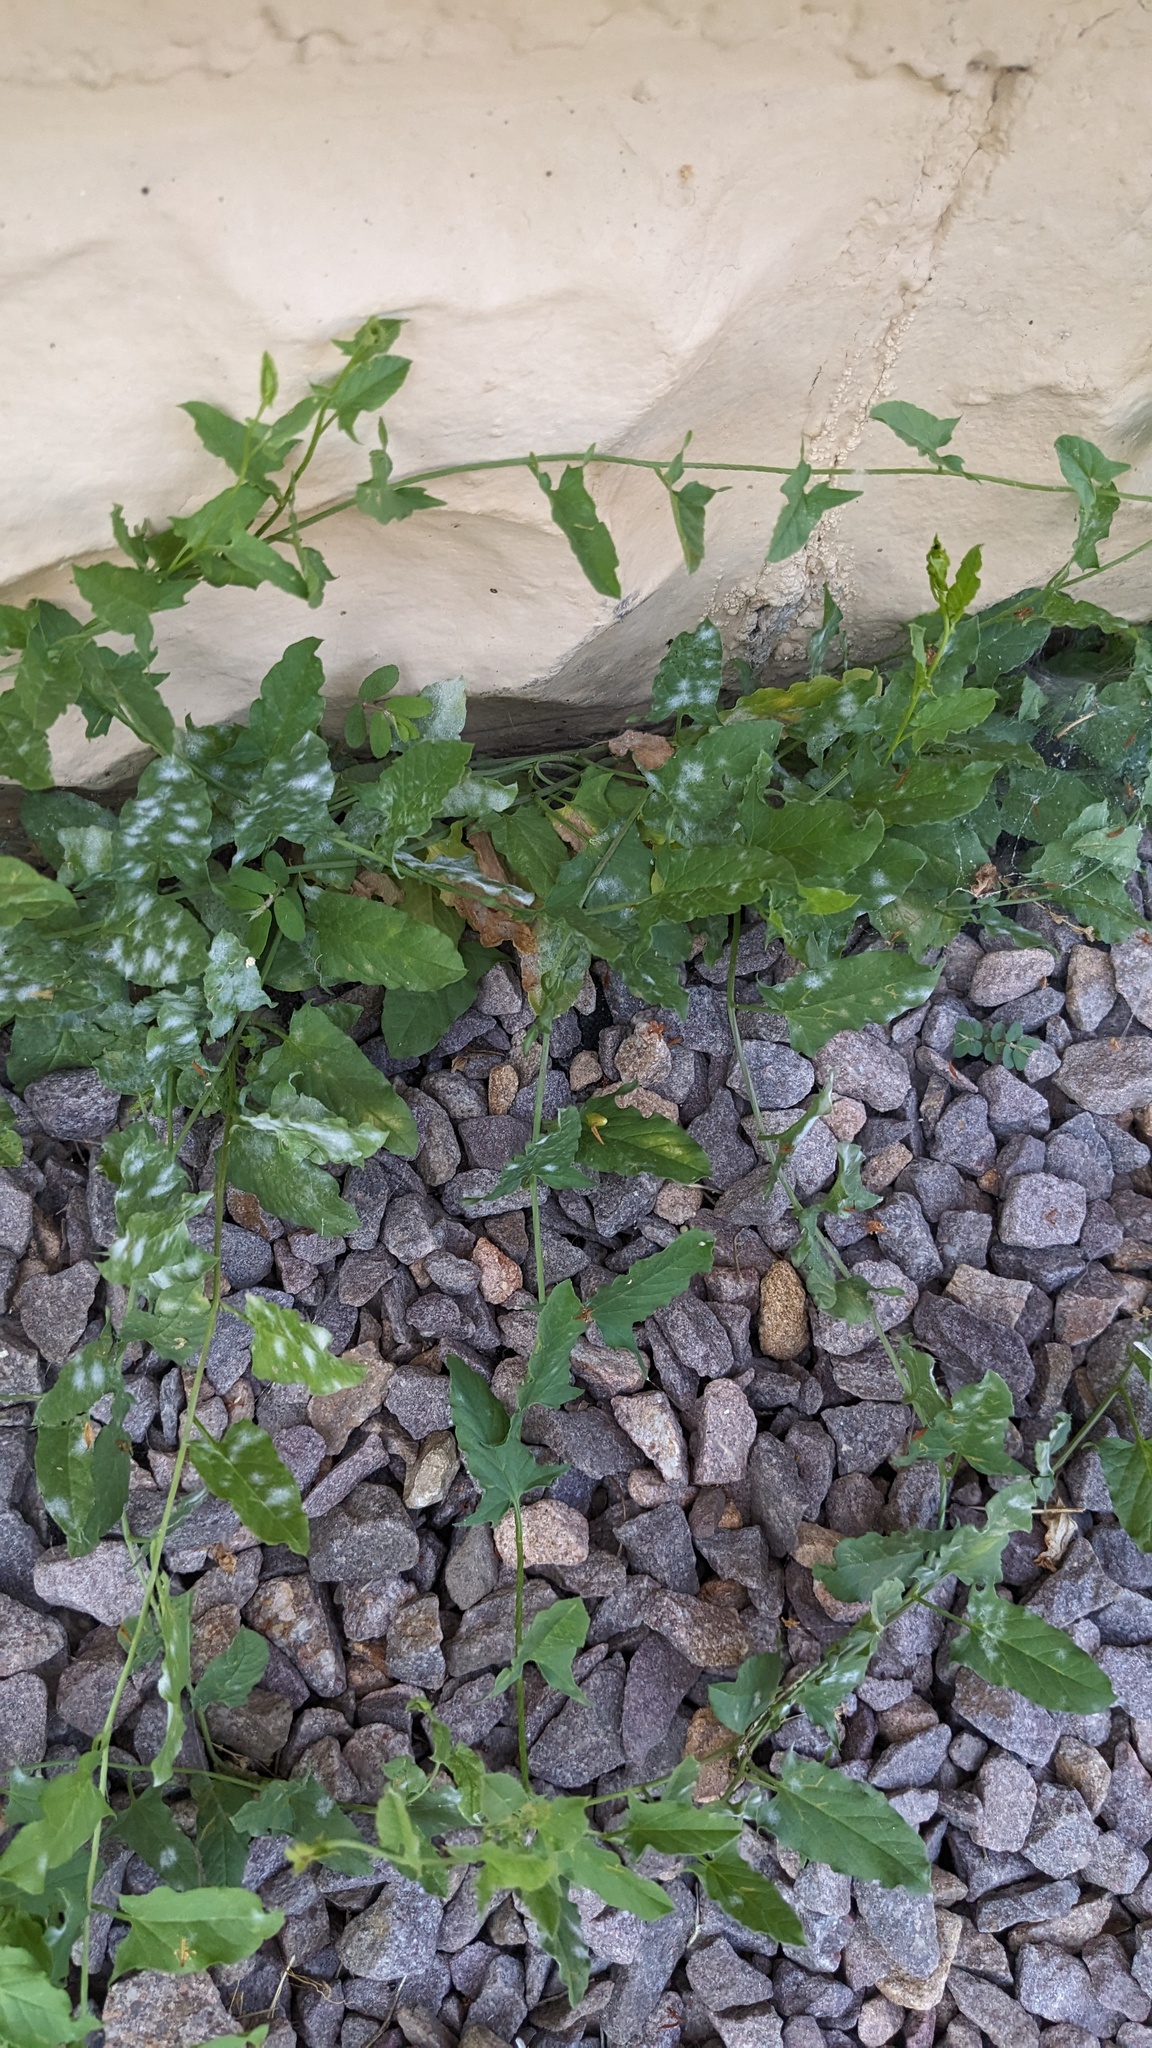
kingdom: Plantae
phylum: Tracheophyta
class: Magnoliopsida
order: Solanales
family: Convolvulaceae
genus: Convolvulus
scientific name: Convolvulus arvensis
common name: Field bindweed
